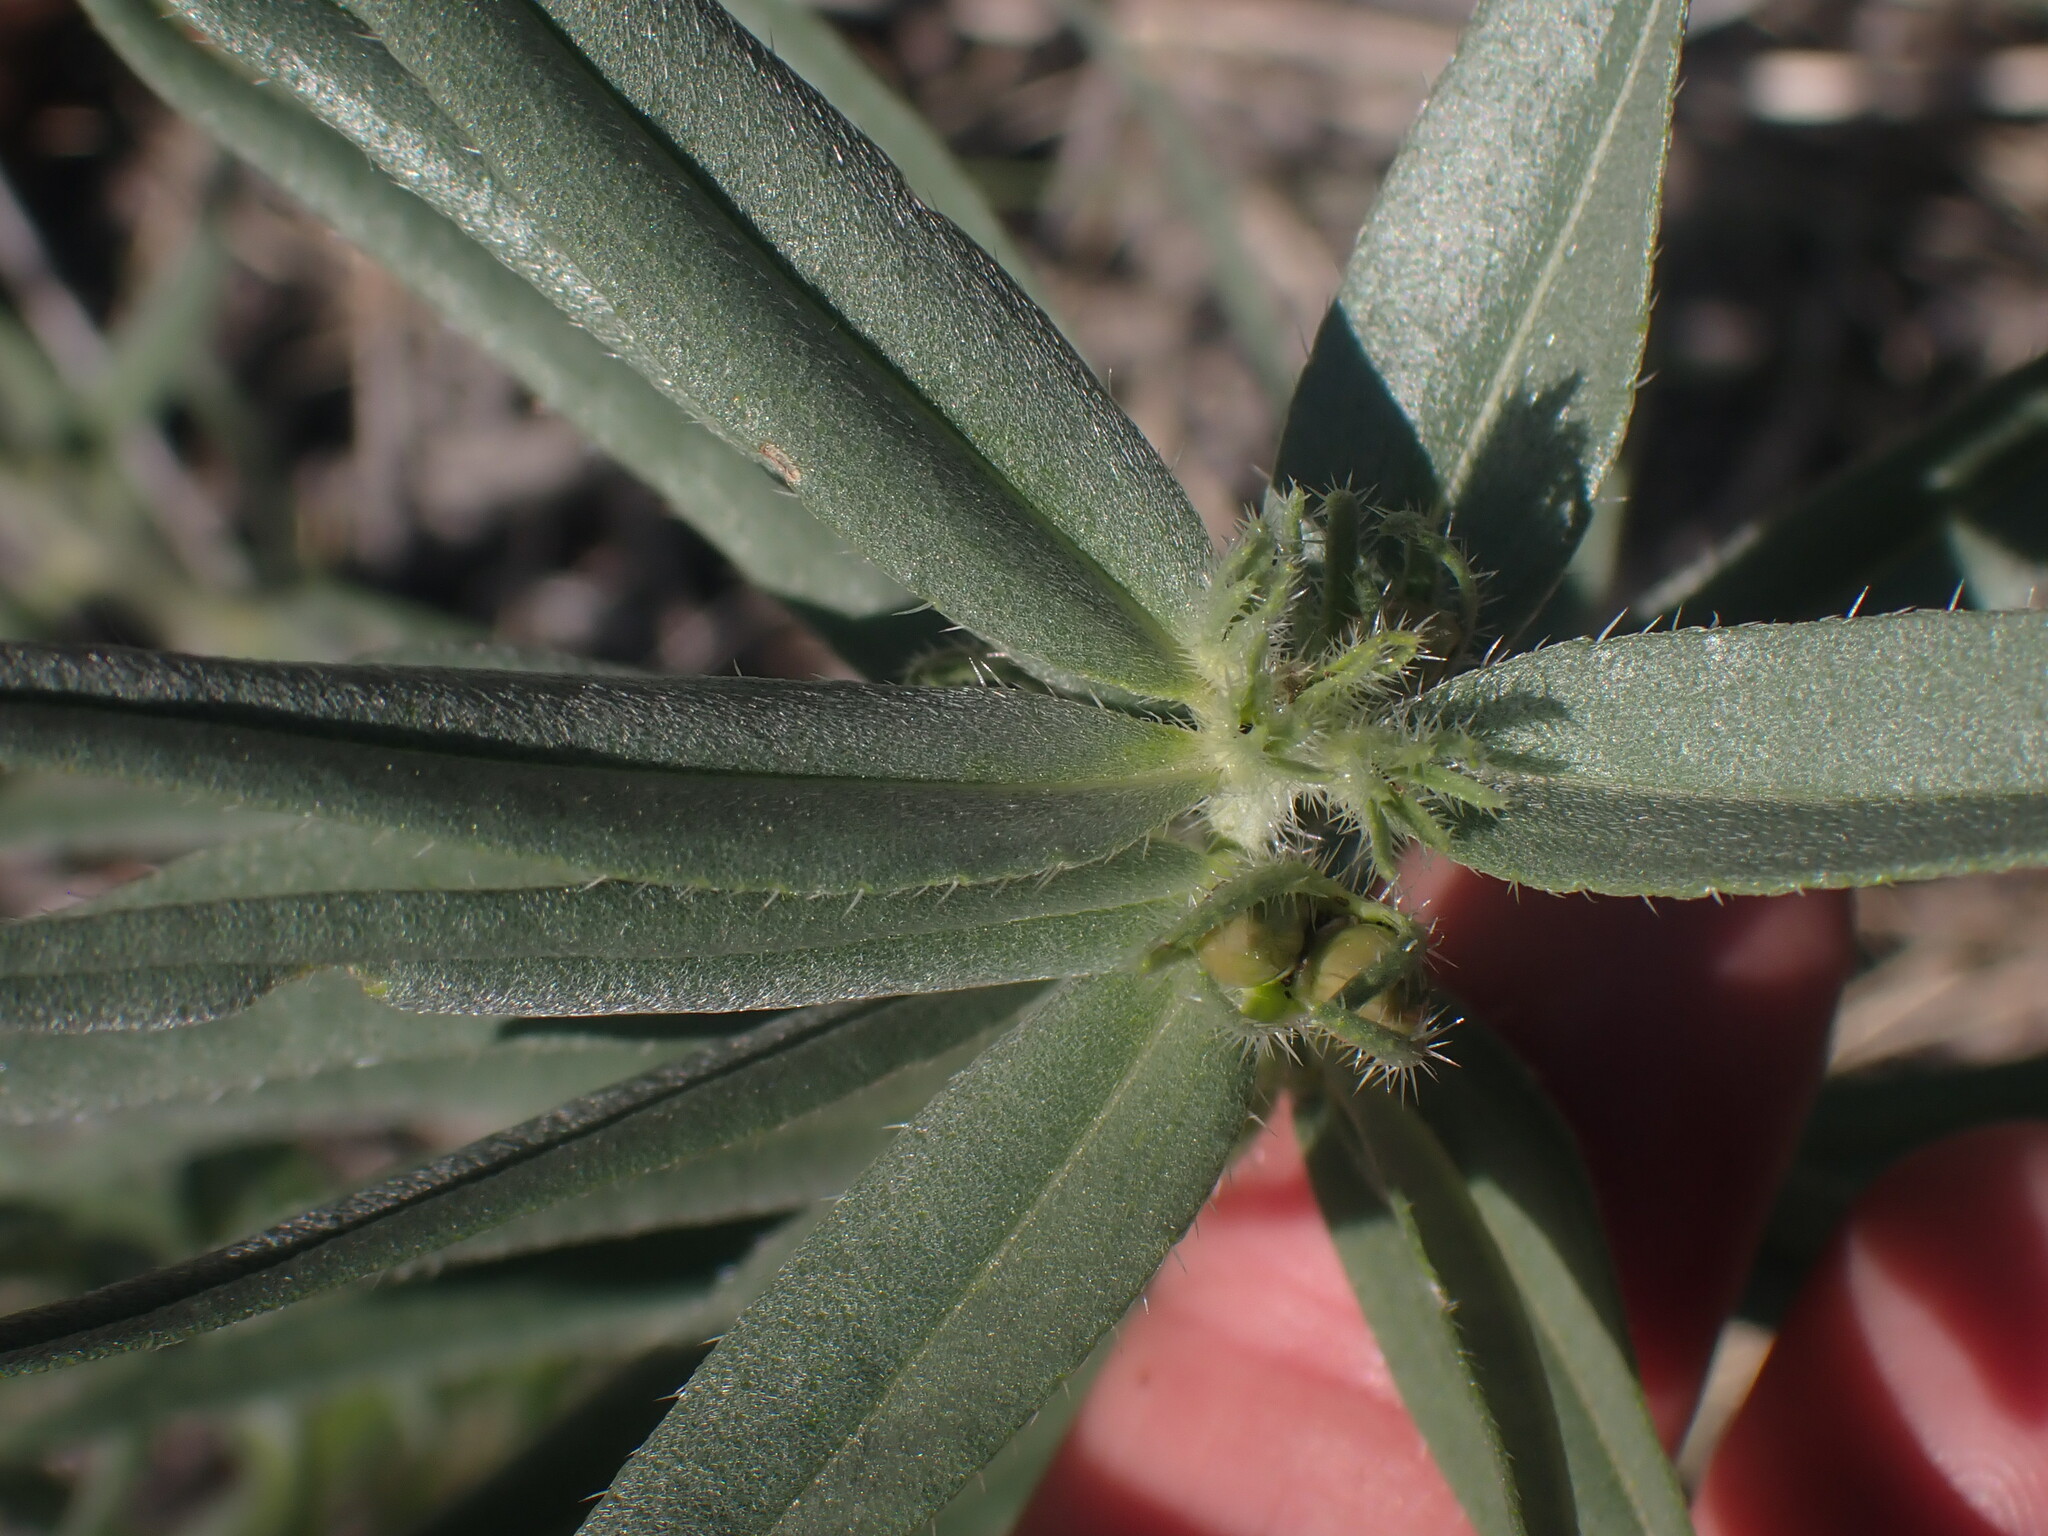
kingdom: Plantae
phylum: Tracheophyta
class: Magnoliopsida
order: Boraginales
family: Boraginaceae
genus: Lithospermum
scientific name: Lithospermum ruderale
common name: Western gromwell
